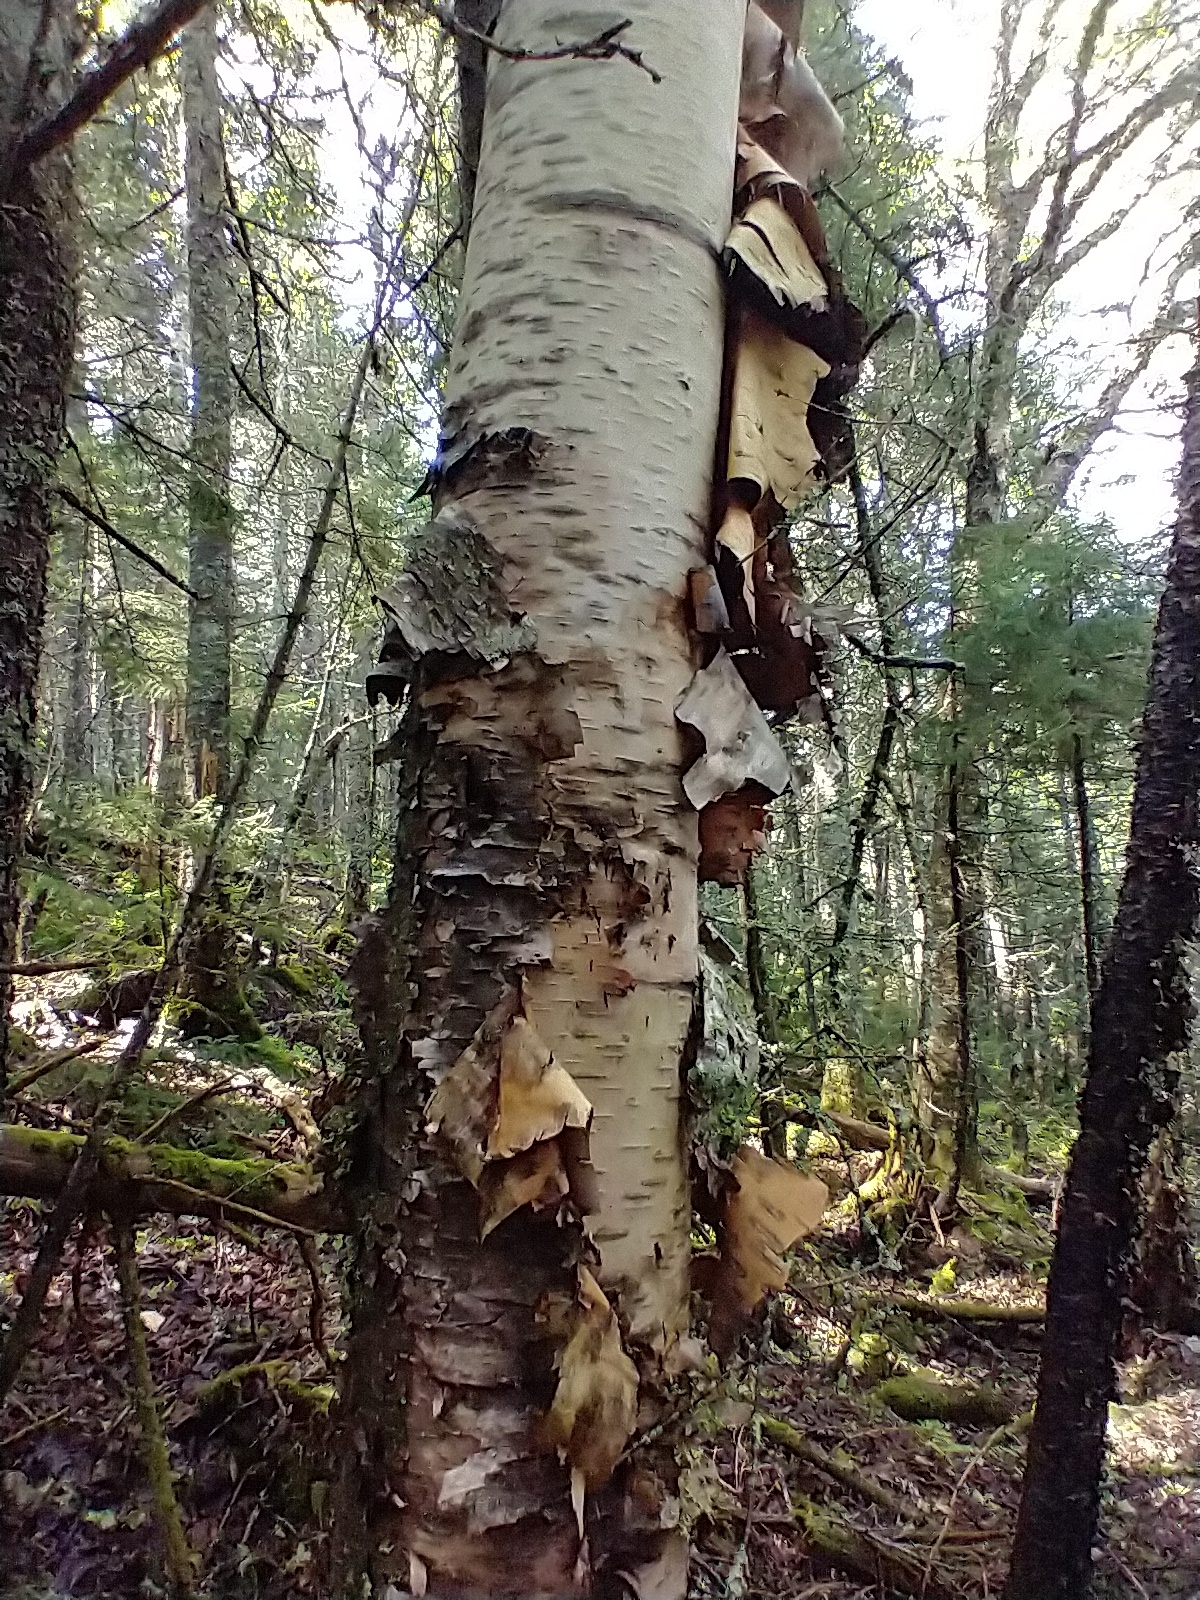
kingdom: Plantae
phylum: Tracheophyta
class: Magnoliopsida
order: Fagales
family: Betulaceae
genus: Betula
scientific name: Betula papyrifera
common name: Paper birch
